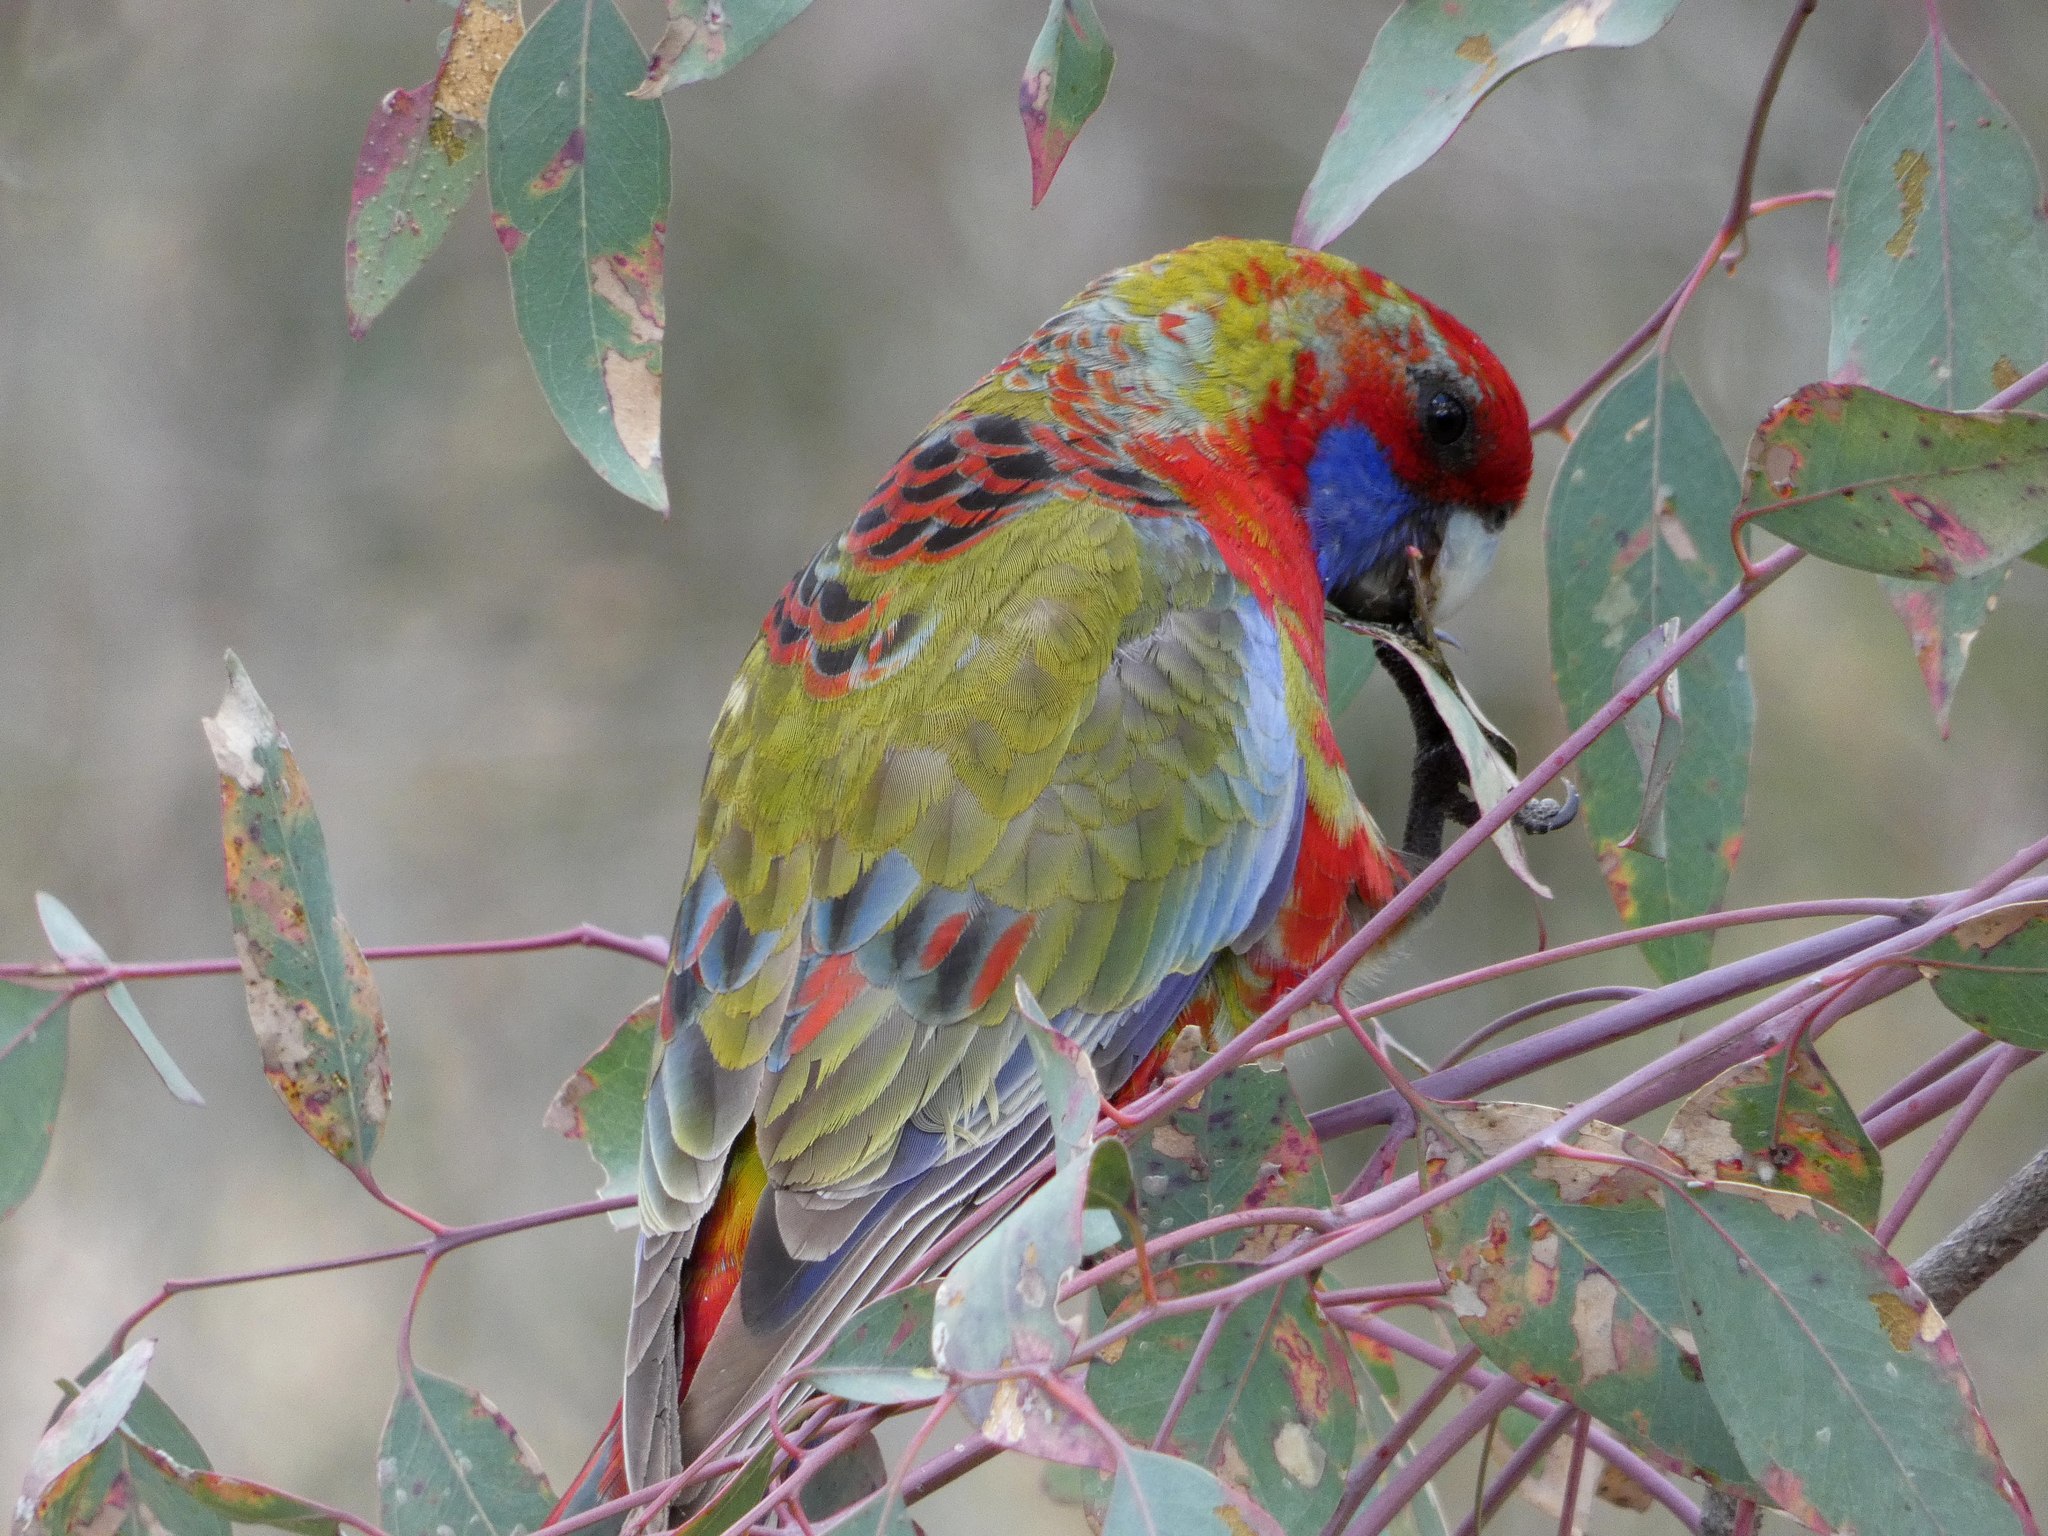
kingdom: Animalia
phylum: Chordata
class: Aves
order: Psittaciformes
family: Psittacidae
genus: Platycercus
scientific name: Platycercus elegans
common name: Crimson rosella
